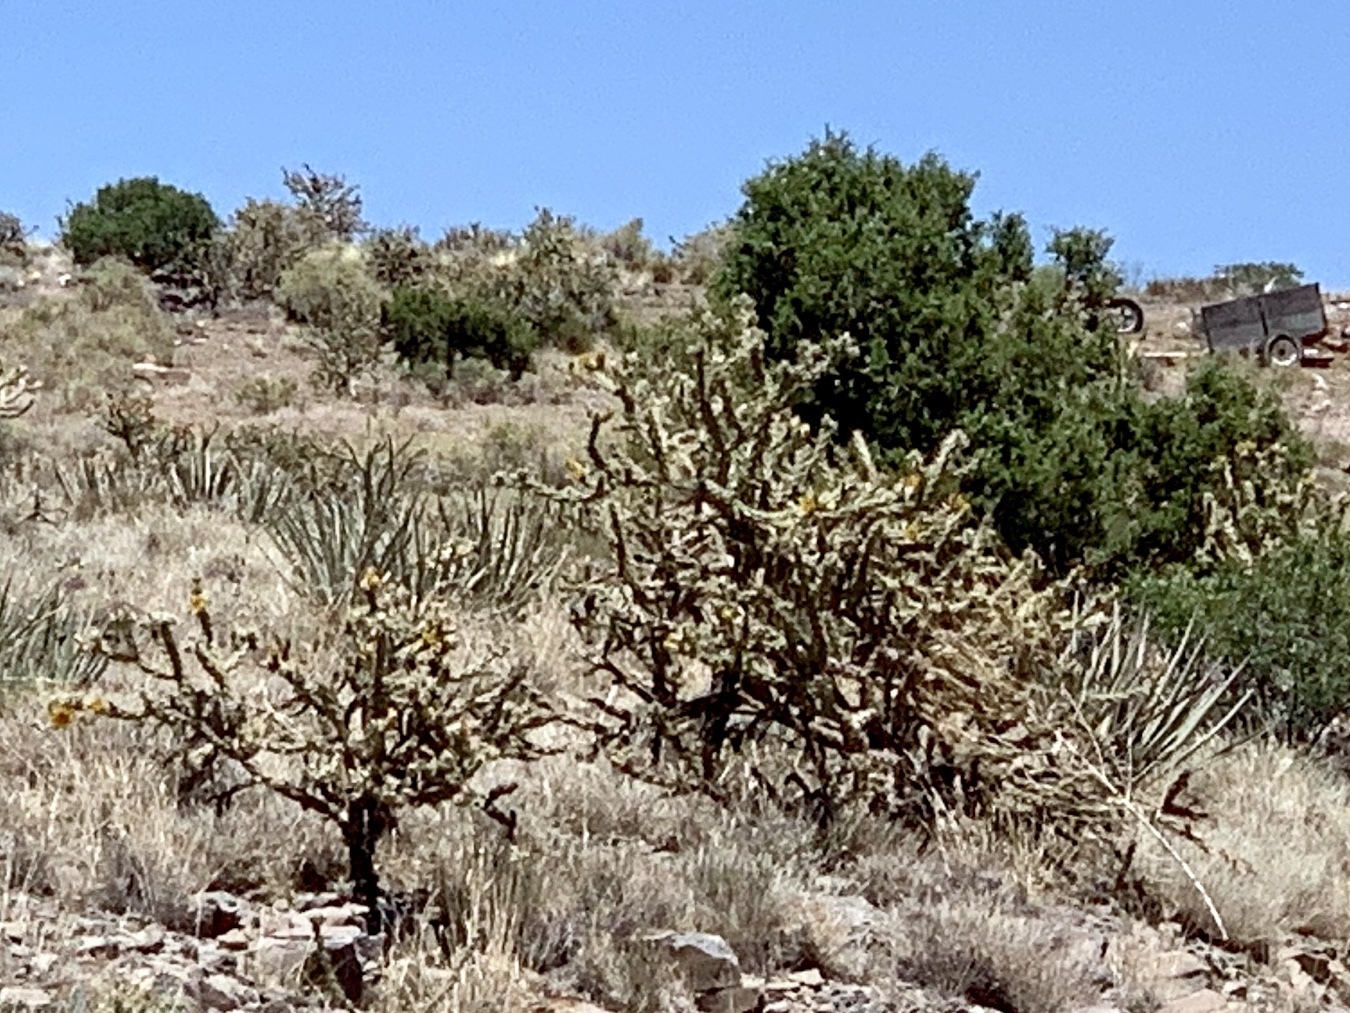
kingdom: Plantae
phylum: Tracheophyta
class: Magnoliopsida
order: Caryophyllales
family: Cactaceae
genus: Cylindropuntia
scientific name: Cylindropuntia acanthocarpa
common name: Buckhorn cholla
